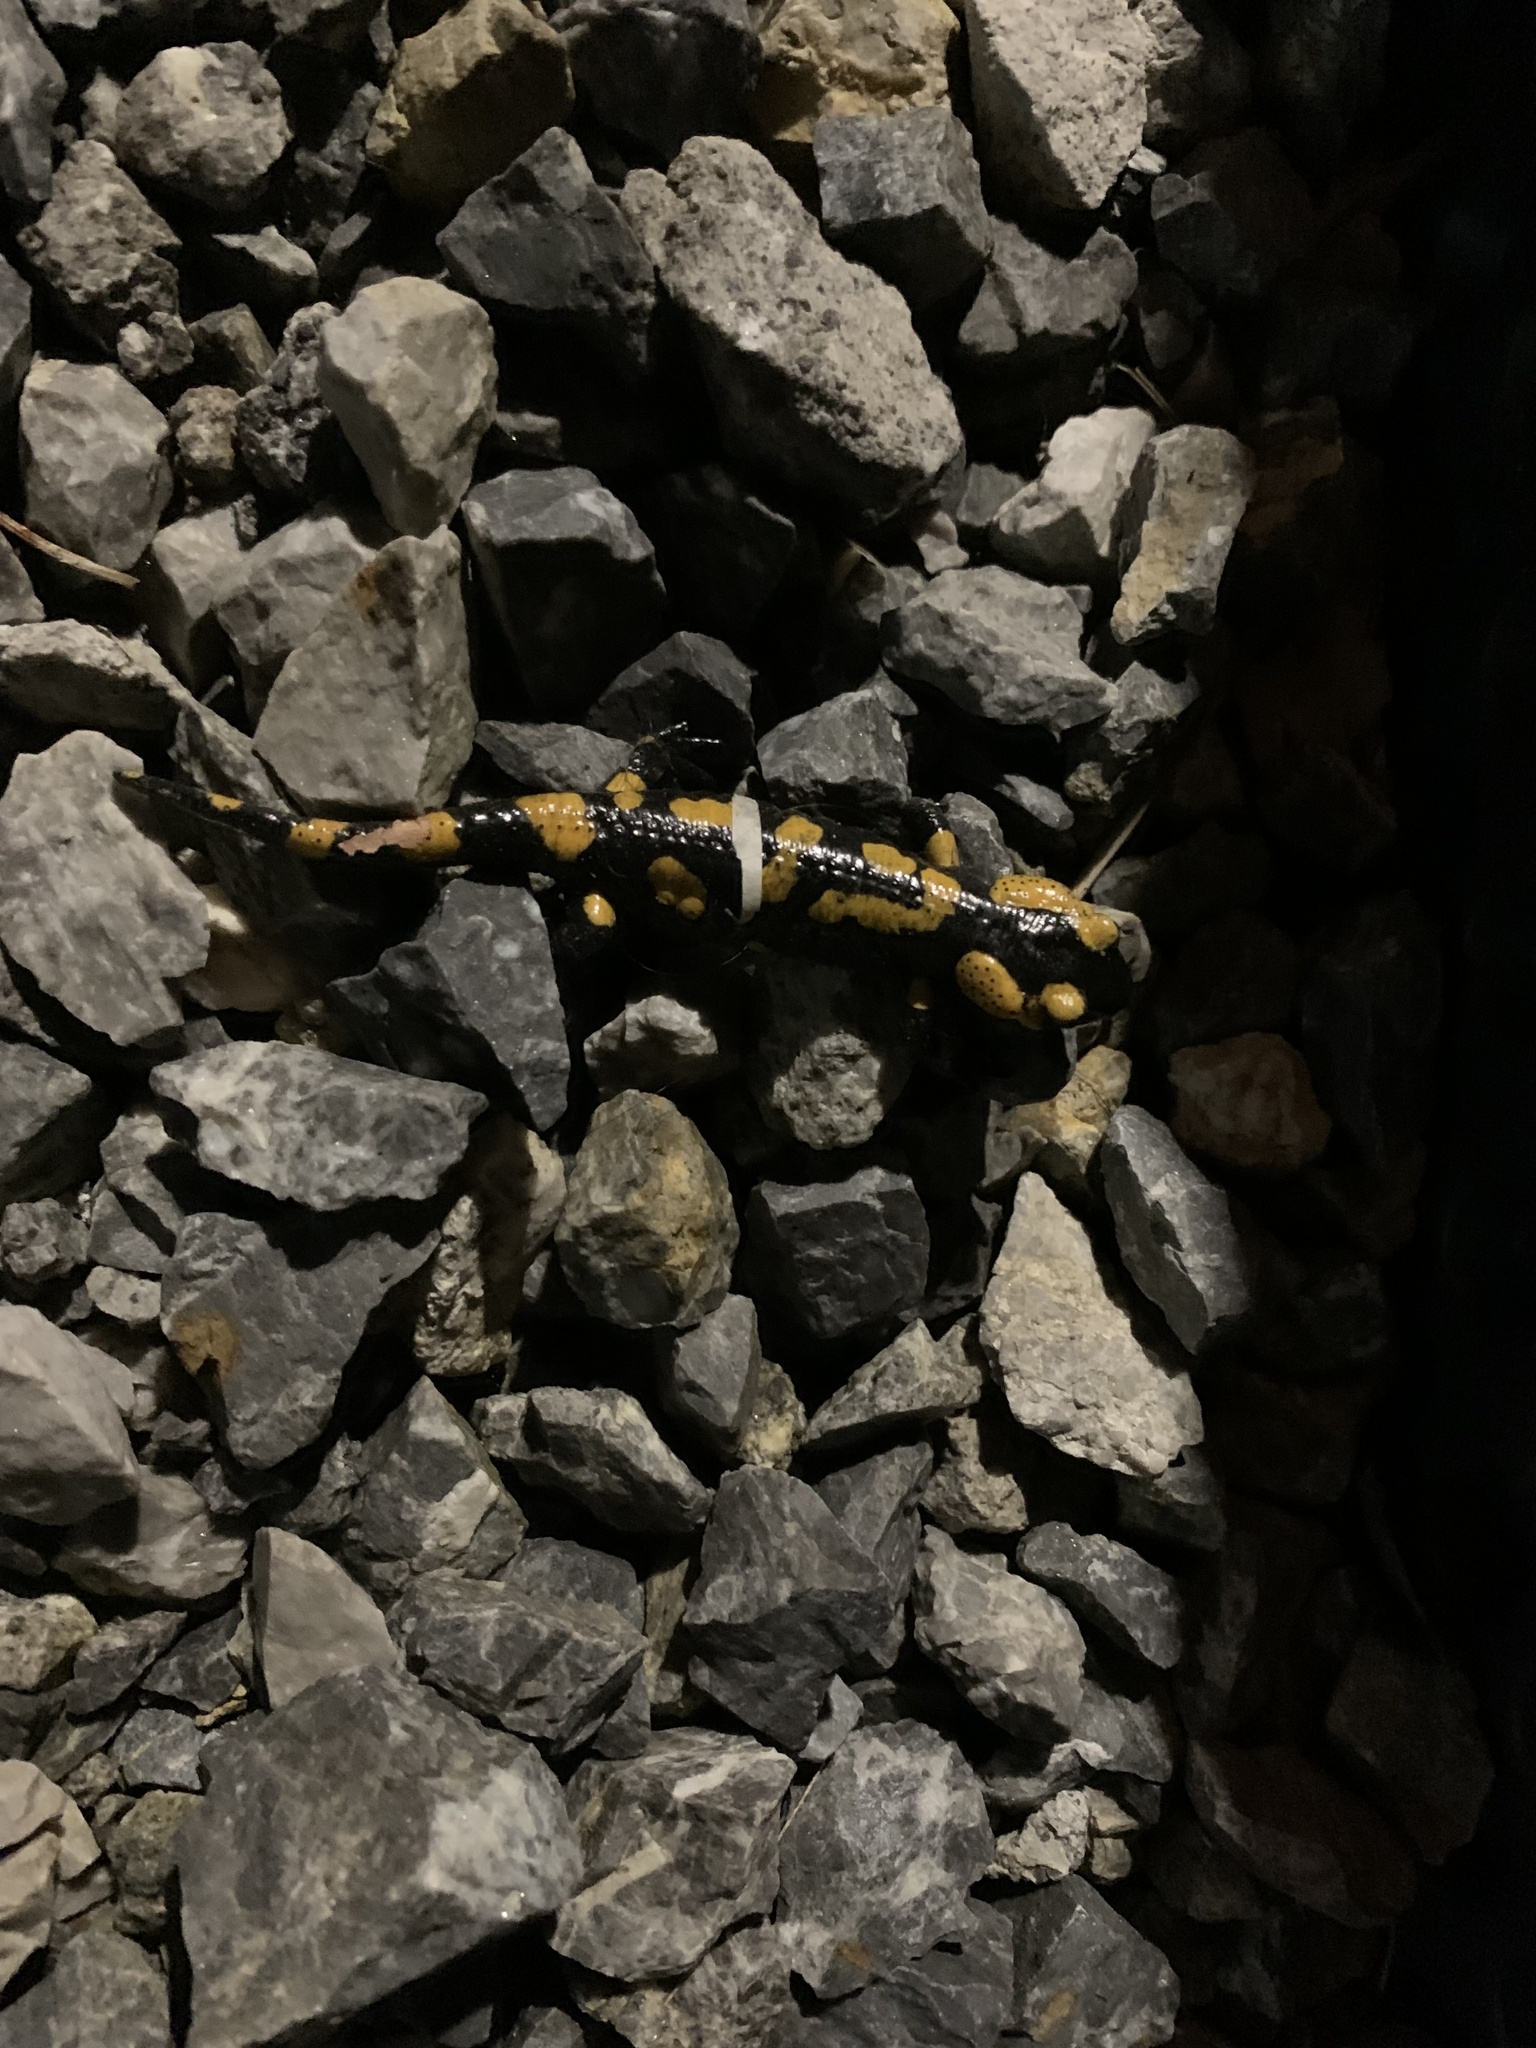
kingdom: Animalia
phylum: Chordata
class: Amphibia
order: Caudata
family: Salamandridae
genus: Salamandra
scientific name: Salamandra salamandra
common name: Fire salamander
